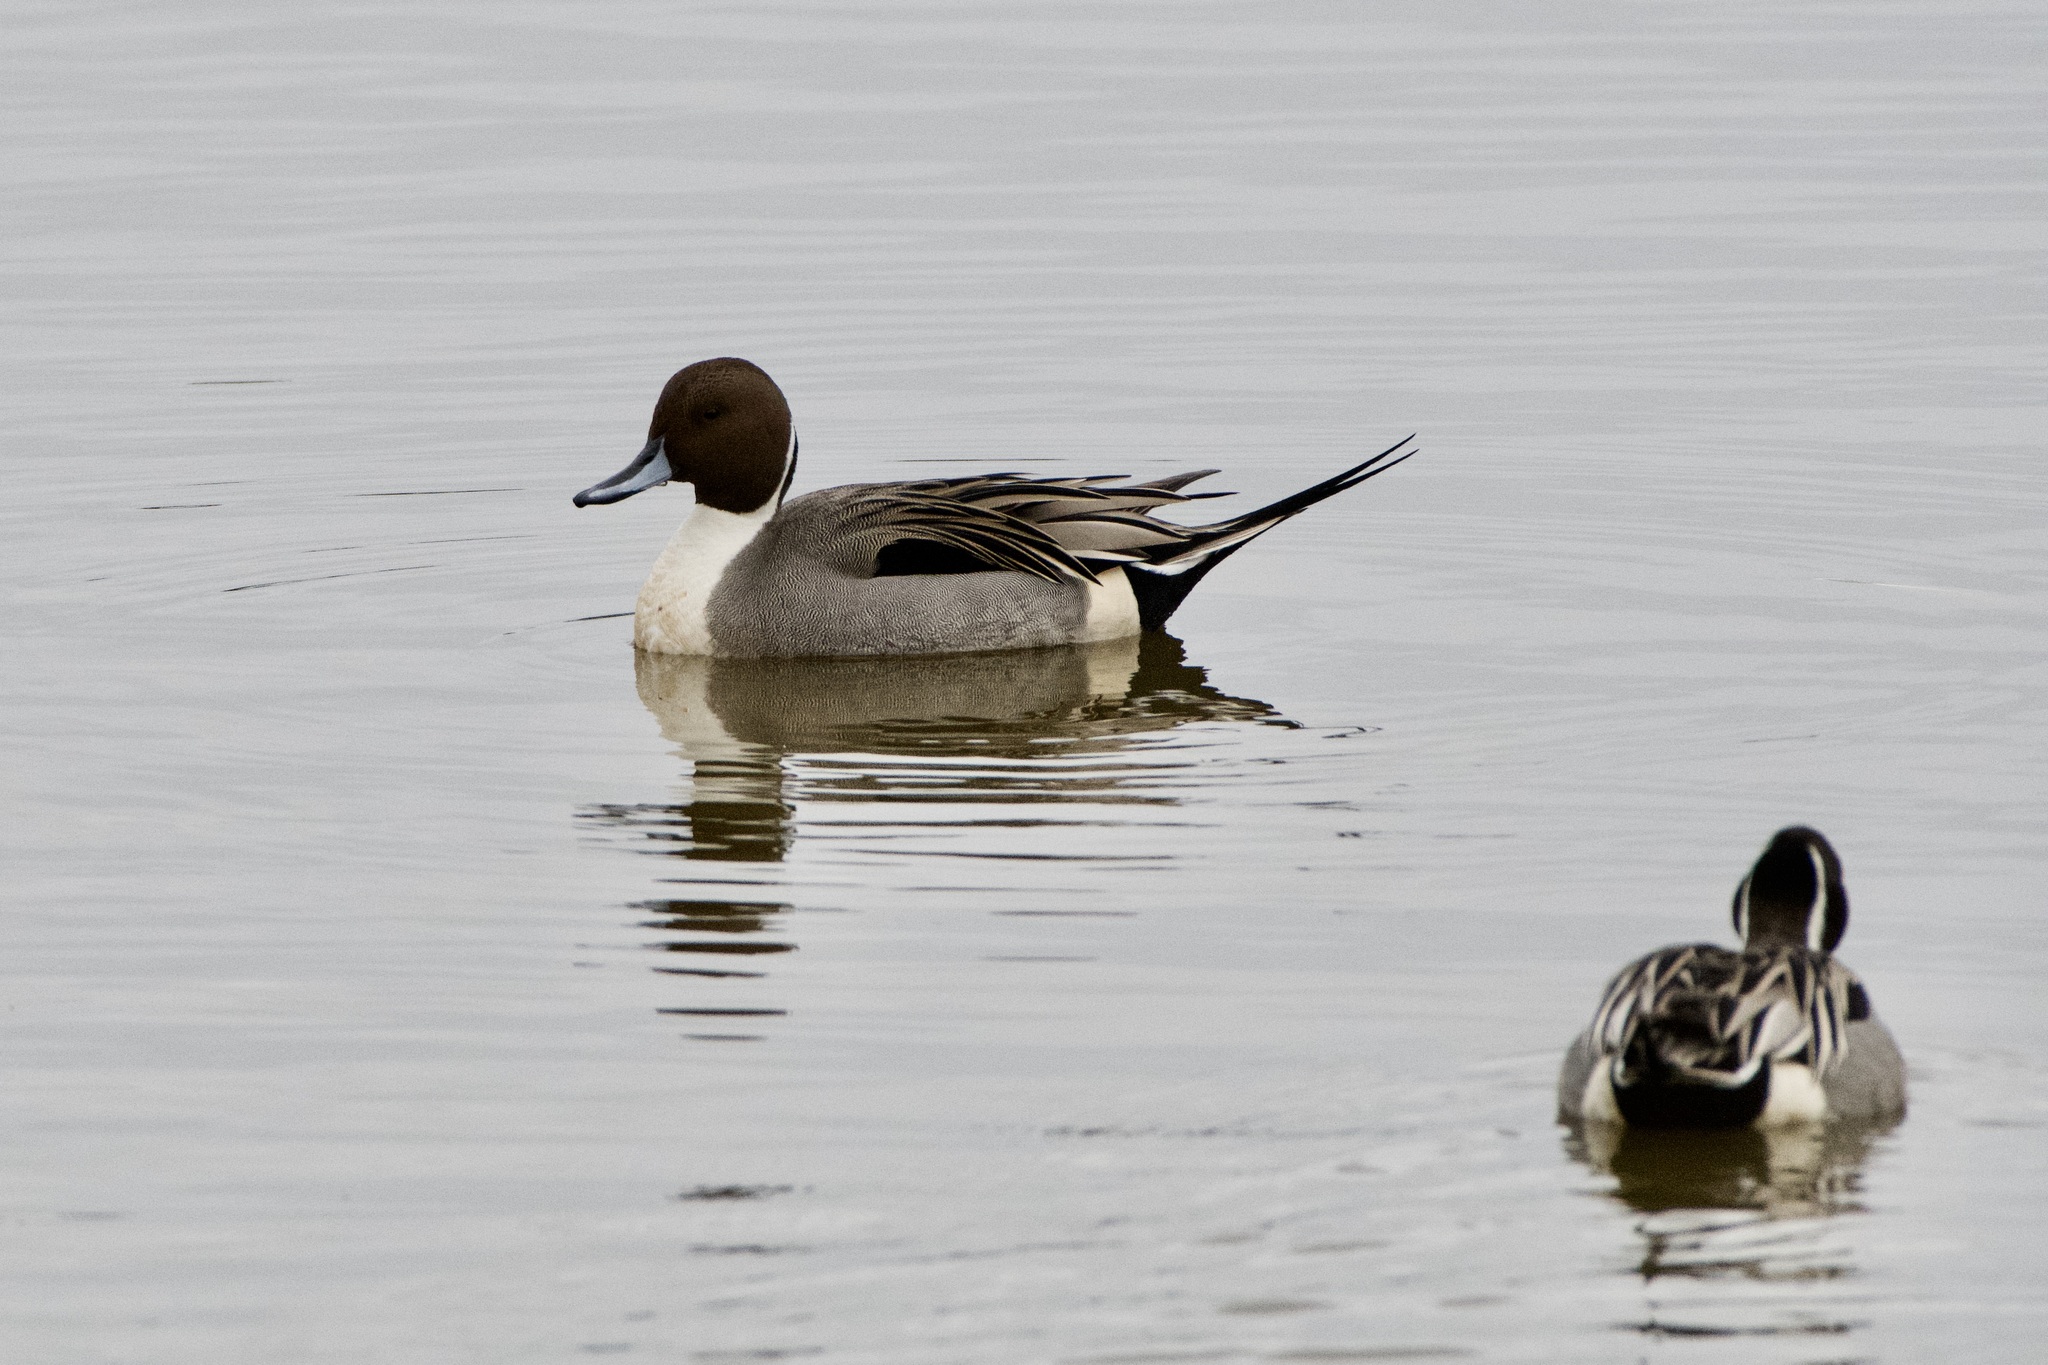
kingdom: Animalia
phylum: Chordata
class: Aves
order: Anseriformes
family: Anatidae
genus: Anas
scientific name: Anas acuta
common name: Northern pintail
